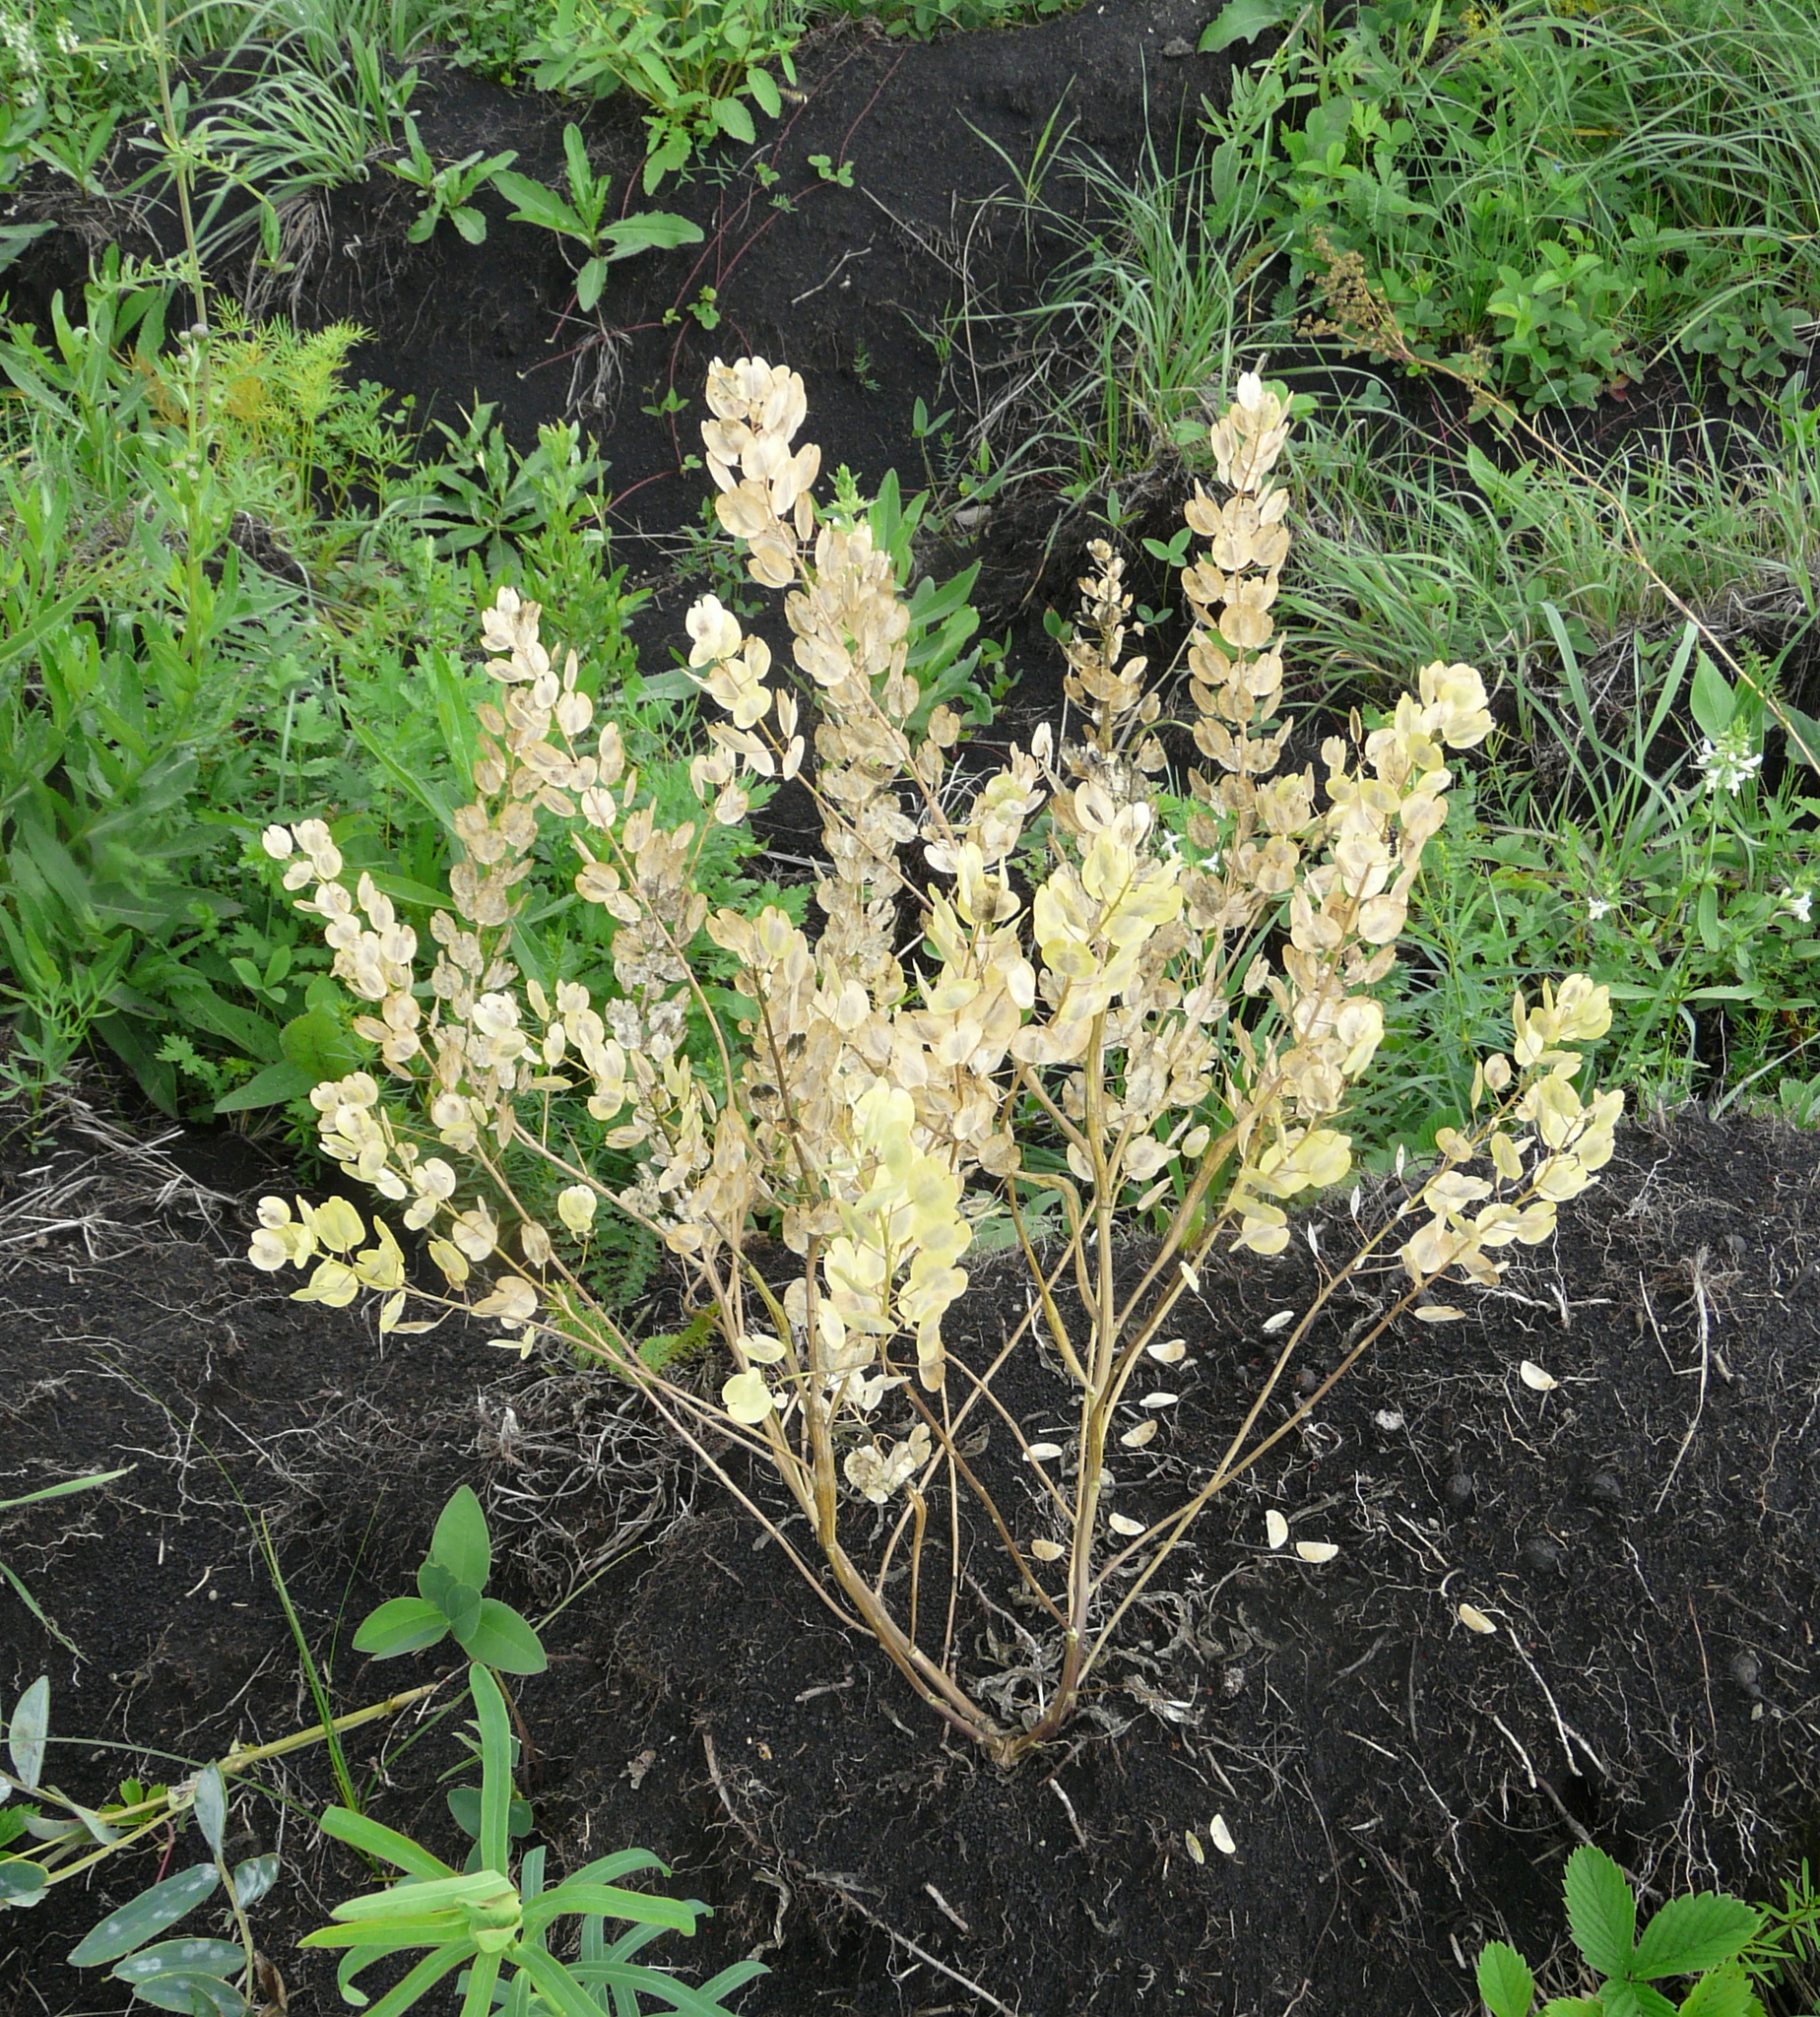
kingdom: Plantae
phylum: Tracheophyta
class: Magnoliopsida
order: Brassicales
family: Brassicaceae
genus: Thlaspi
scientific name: Thlaspi arvense
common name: Field pennycress
